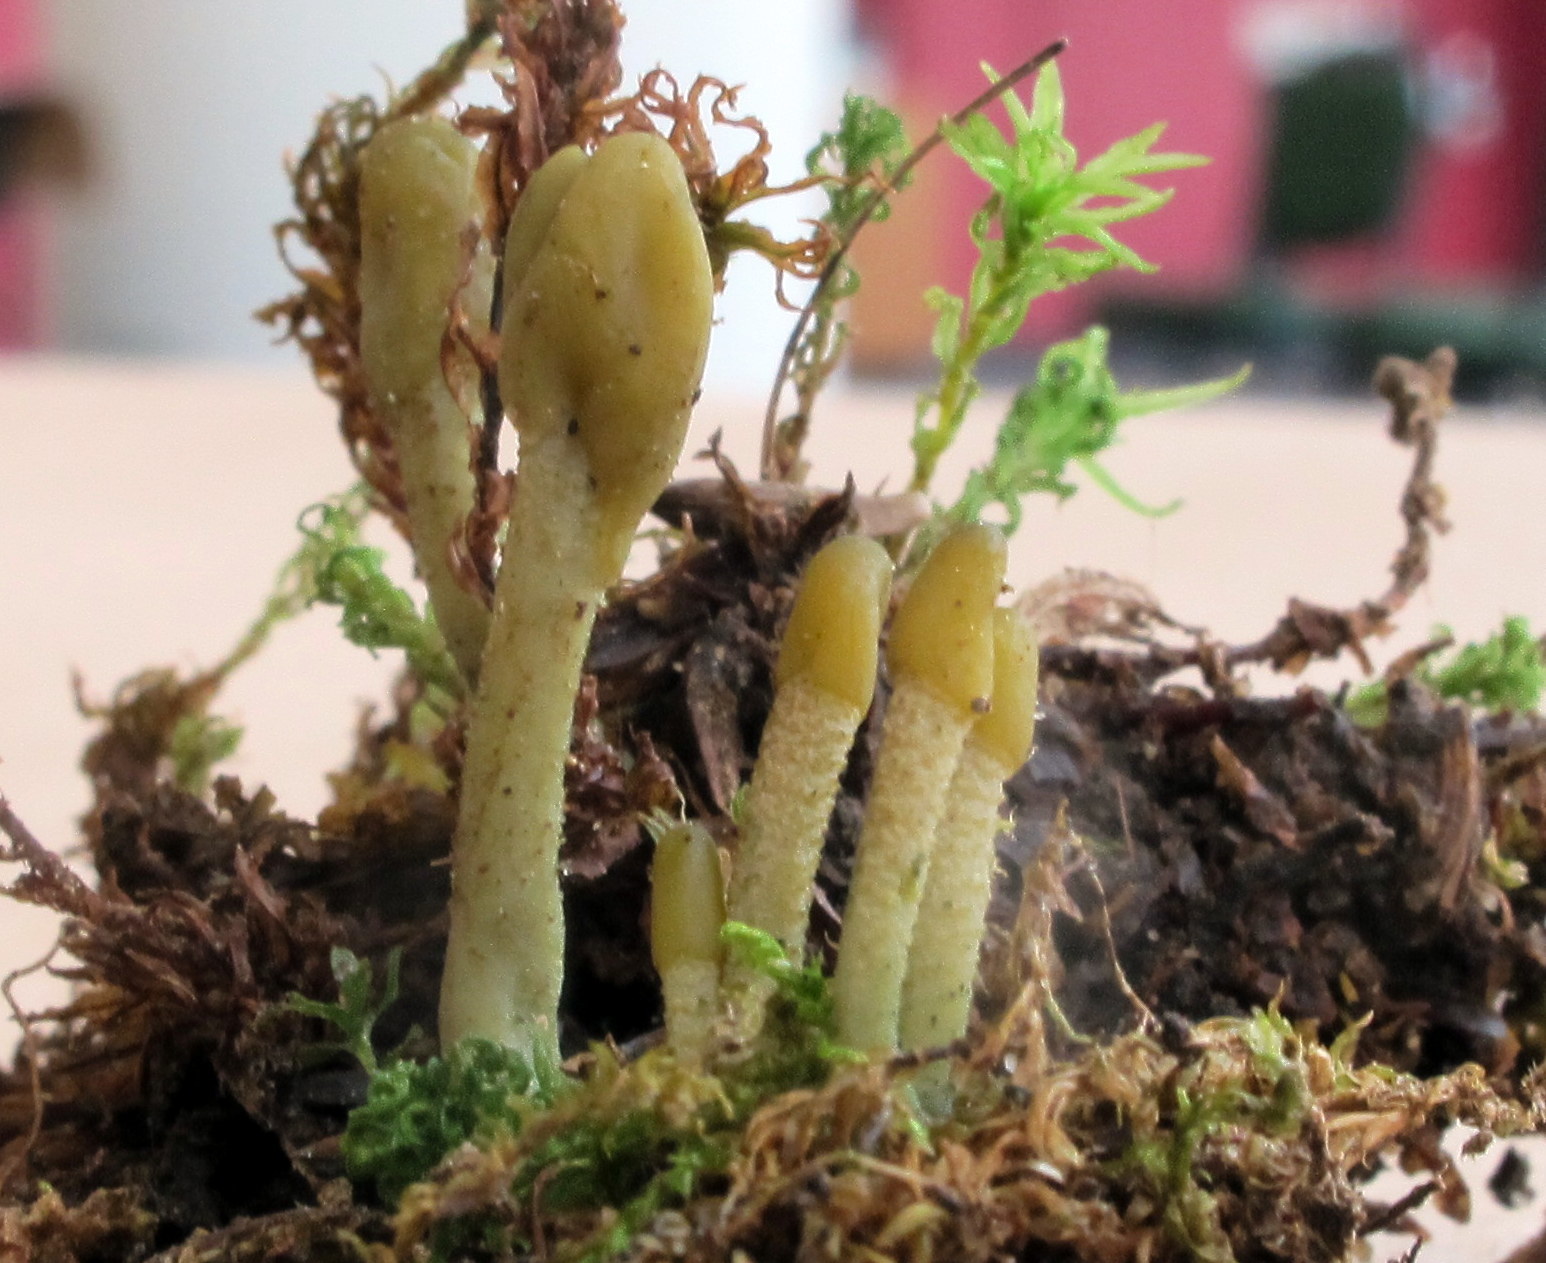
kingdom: Fungi
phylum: Ascomycota
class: Leotiomycetes
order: Leotiales
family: Leotiaceae
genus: Microglossum
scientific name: Microglossum griseoviride
